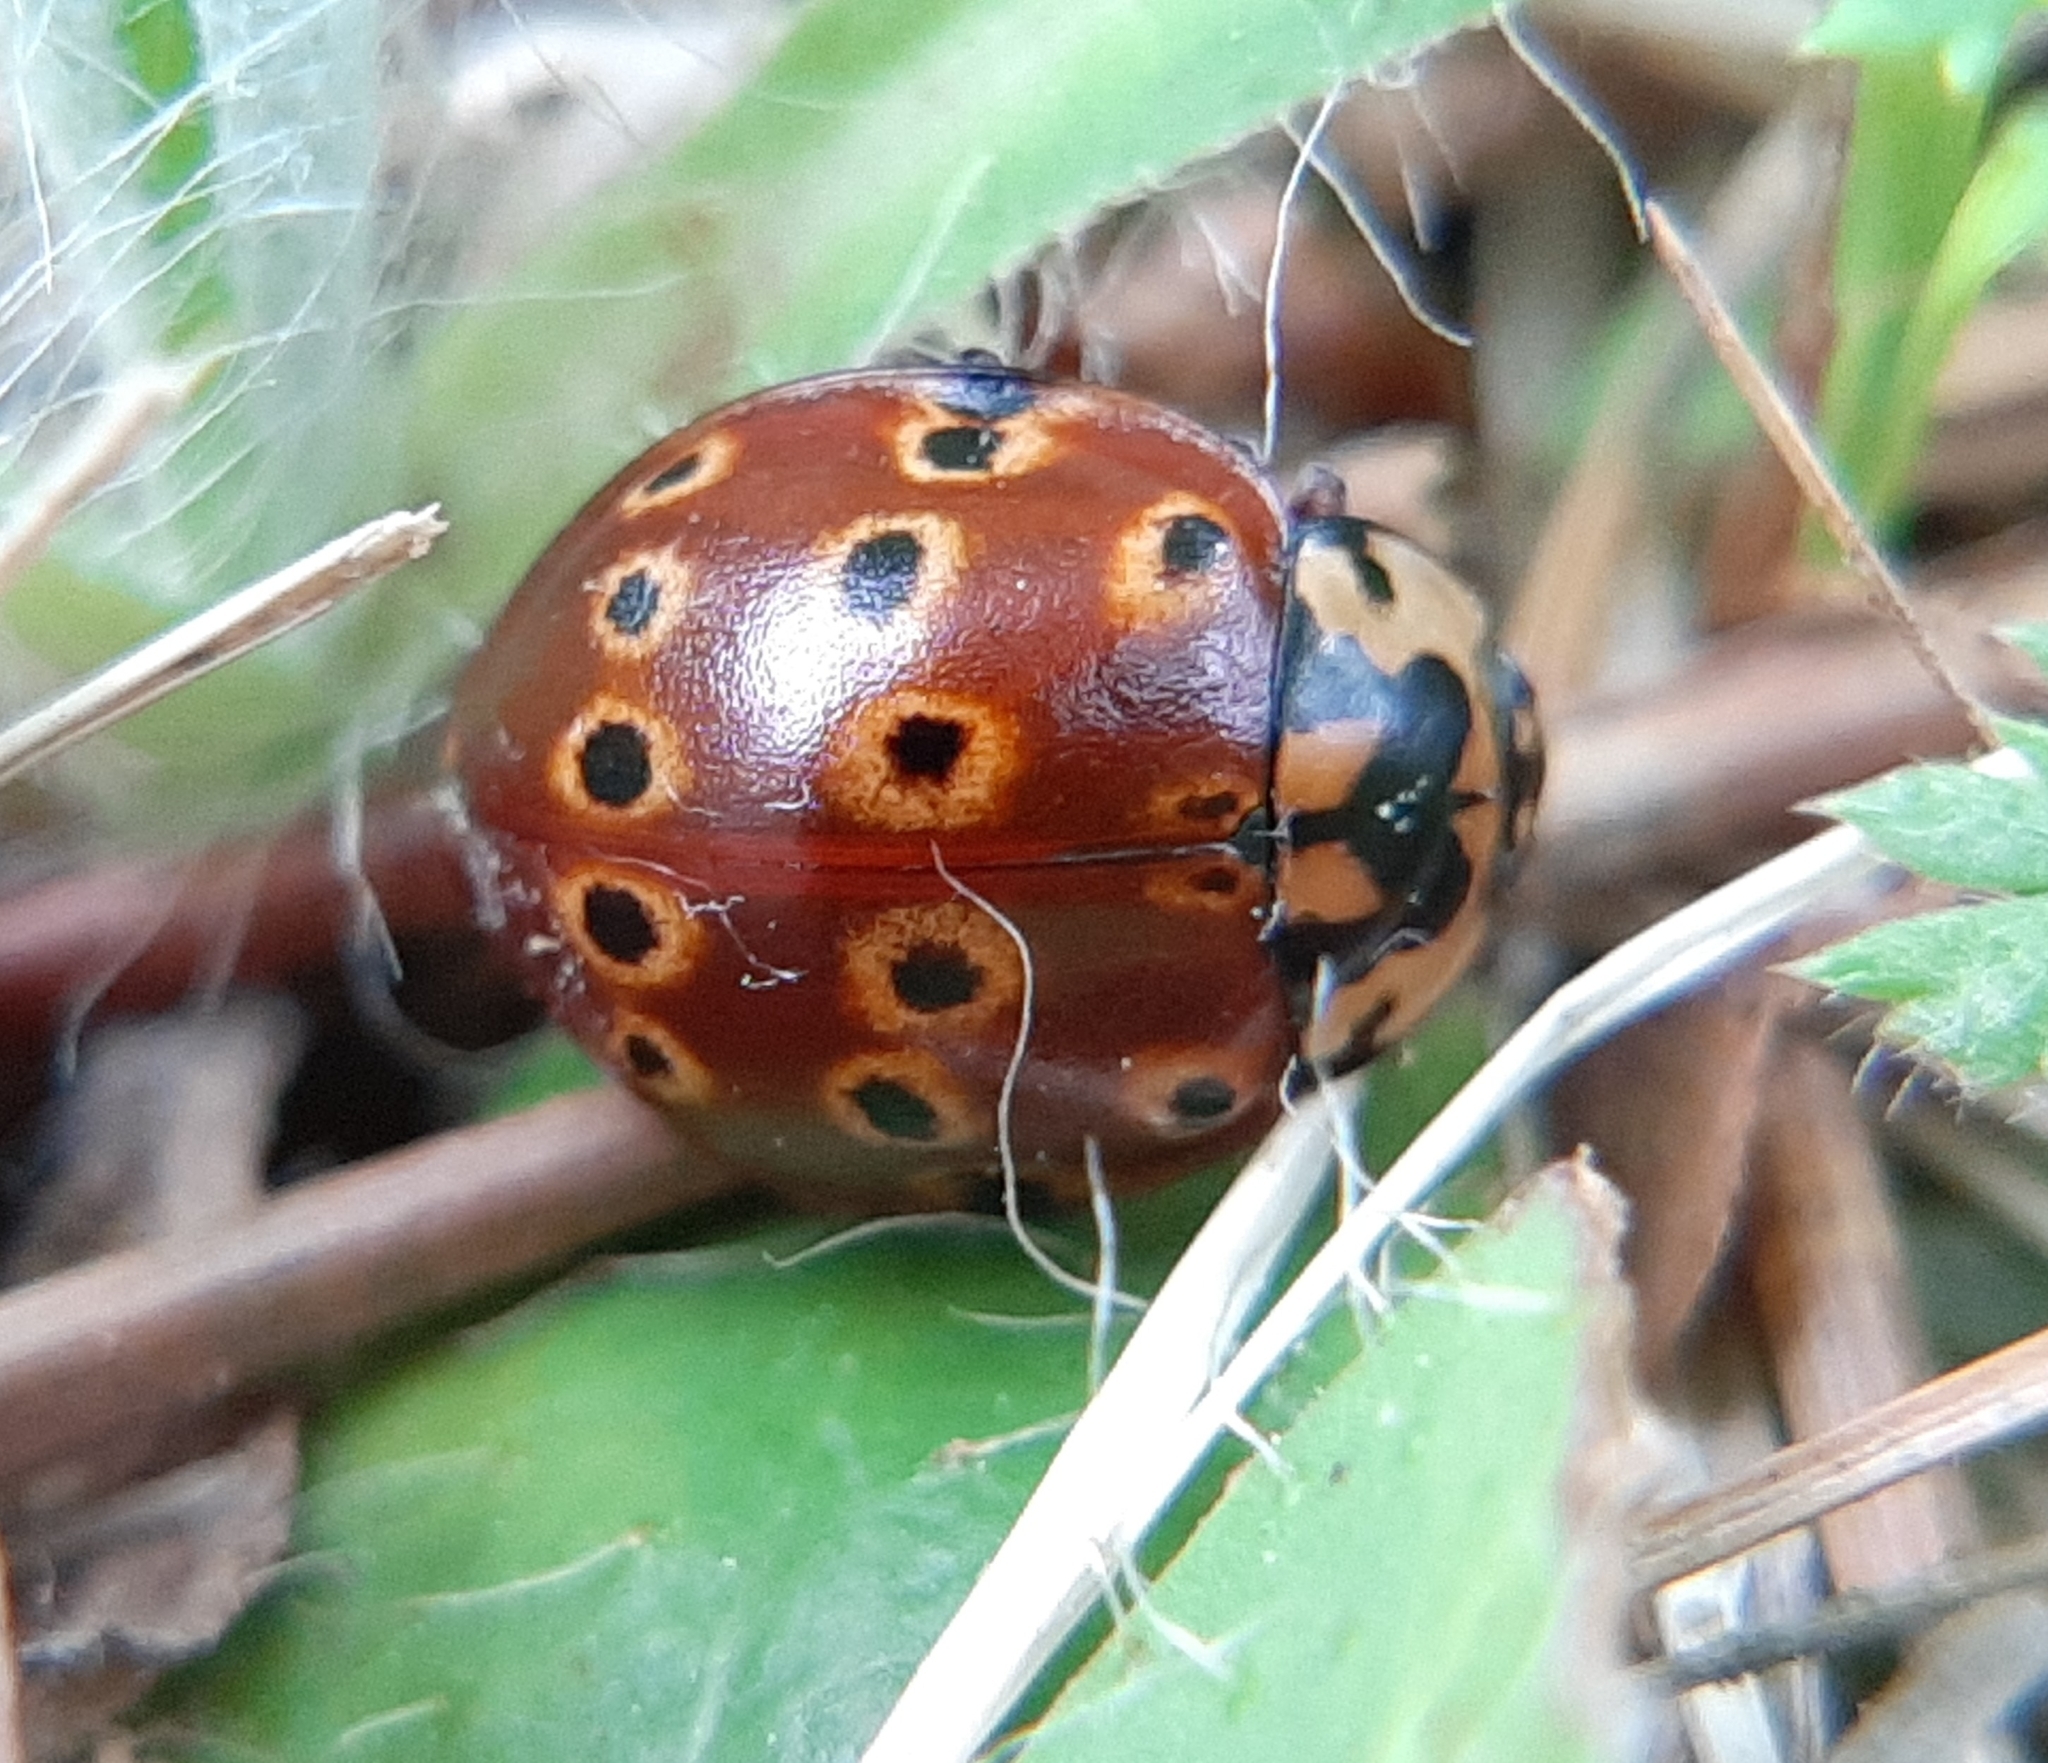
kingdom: Animalia
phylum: Arthropoda
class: Insecta
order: Coleoptera
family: Coccinellidae
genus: Anatis
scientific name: Anatis mali
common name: Eye-spotted lady beetle
